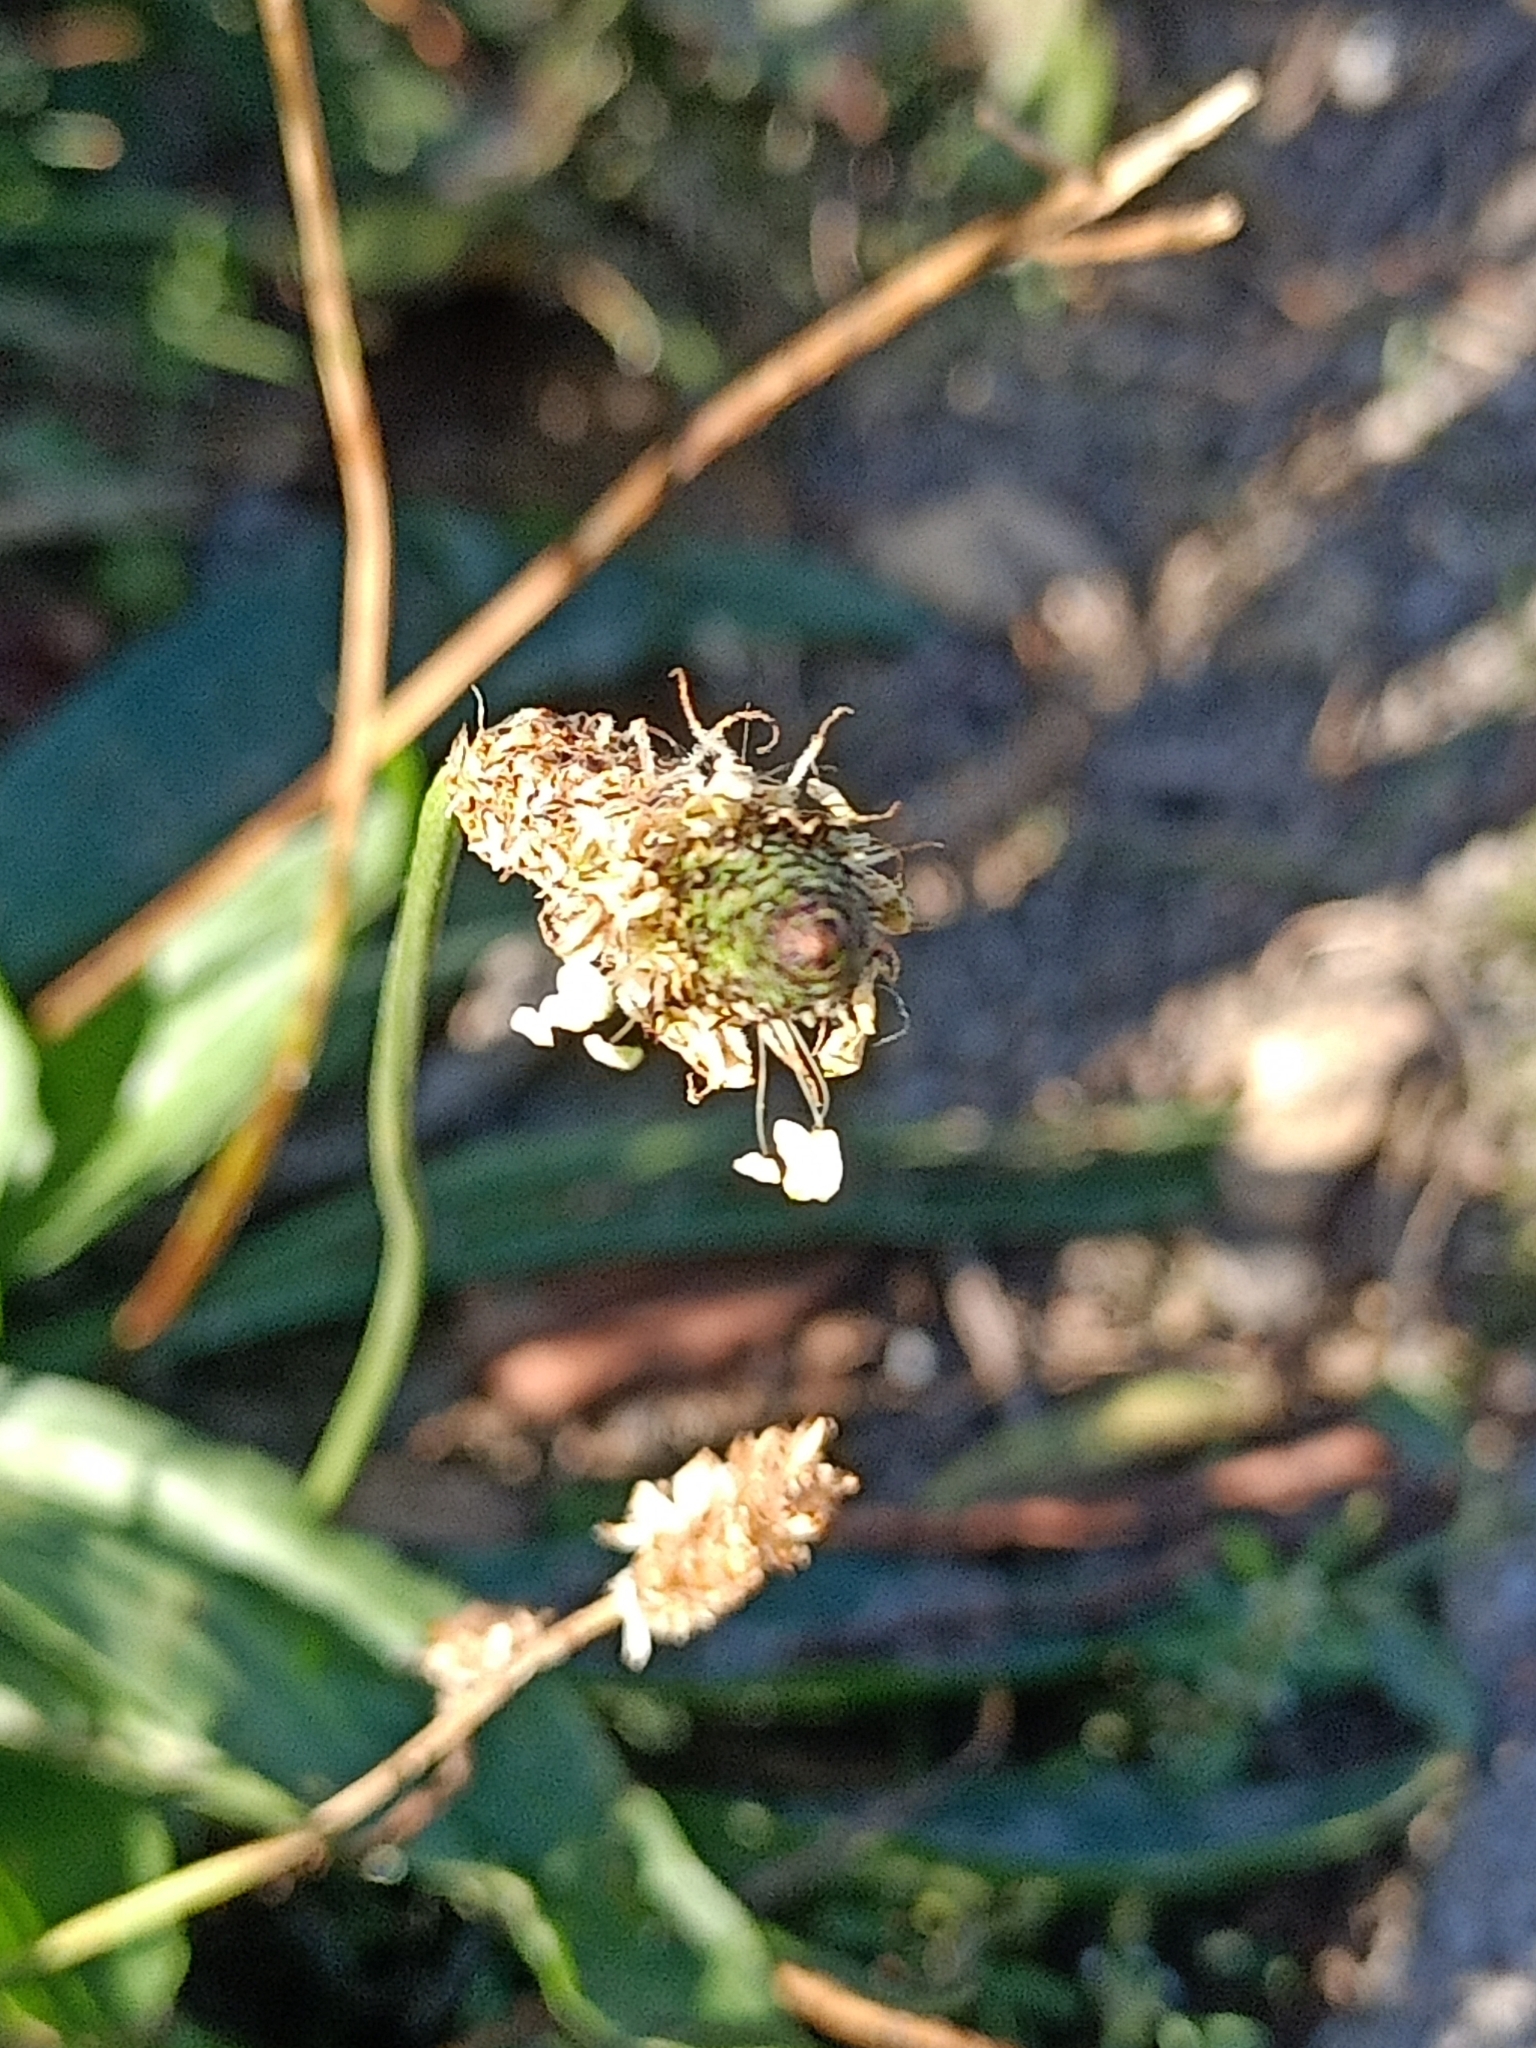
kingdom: Plantae
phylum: Tracheophyta
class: Magnoliopsida
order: Lamiales
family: Plantaginaceae
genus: Plantago
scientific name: Plantago lanceolata
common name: Ribwort plantain
